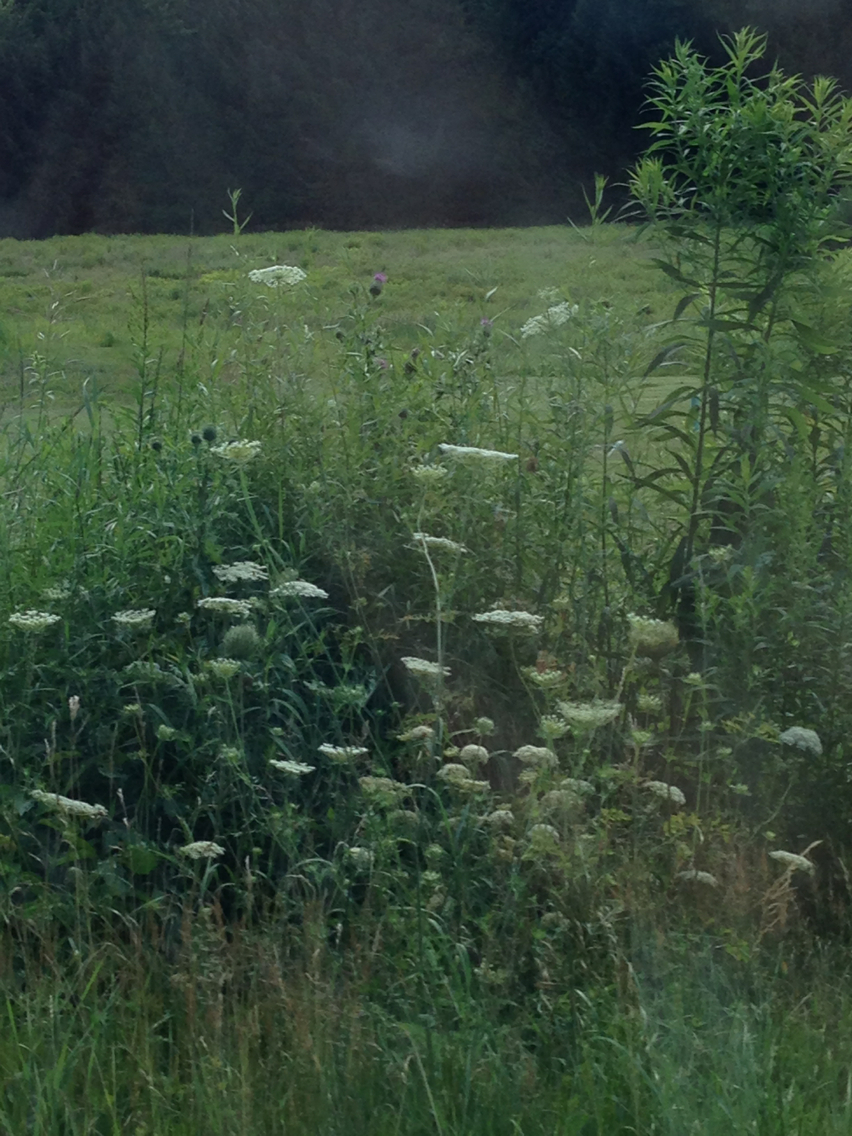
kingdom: Plantae
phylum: Tracheophyta
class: Magnoliopsida
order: Apiales
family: Apiaceae
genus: Daucus
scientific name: Daucus carota
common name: Wild carrot
